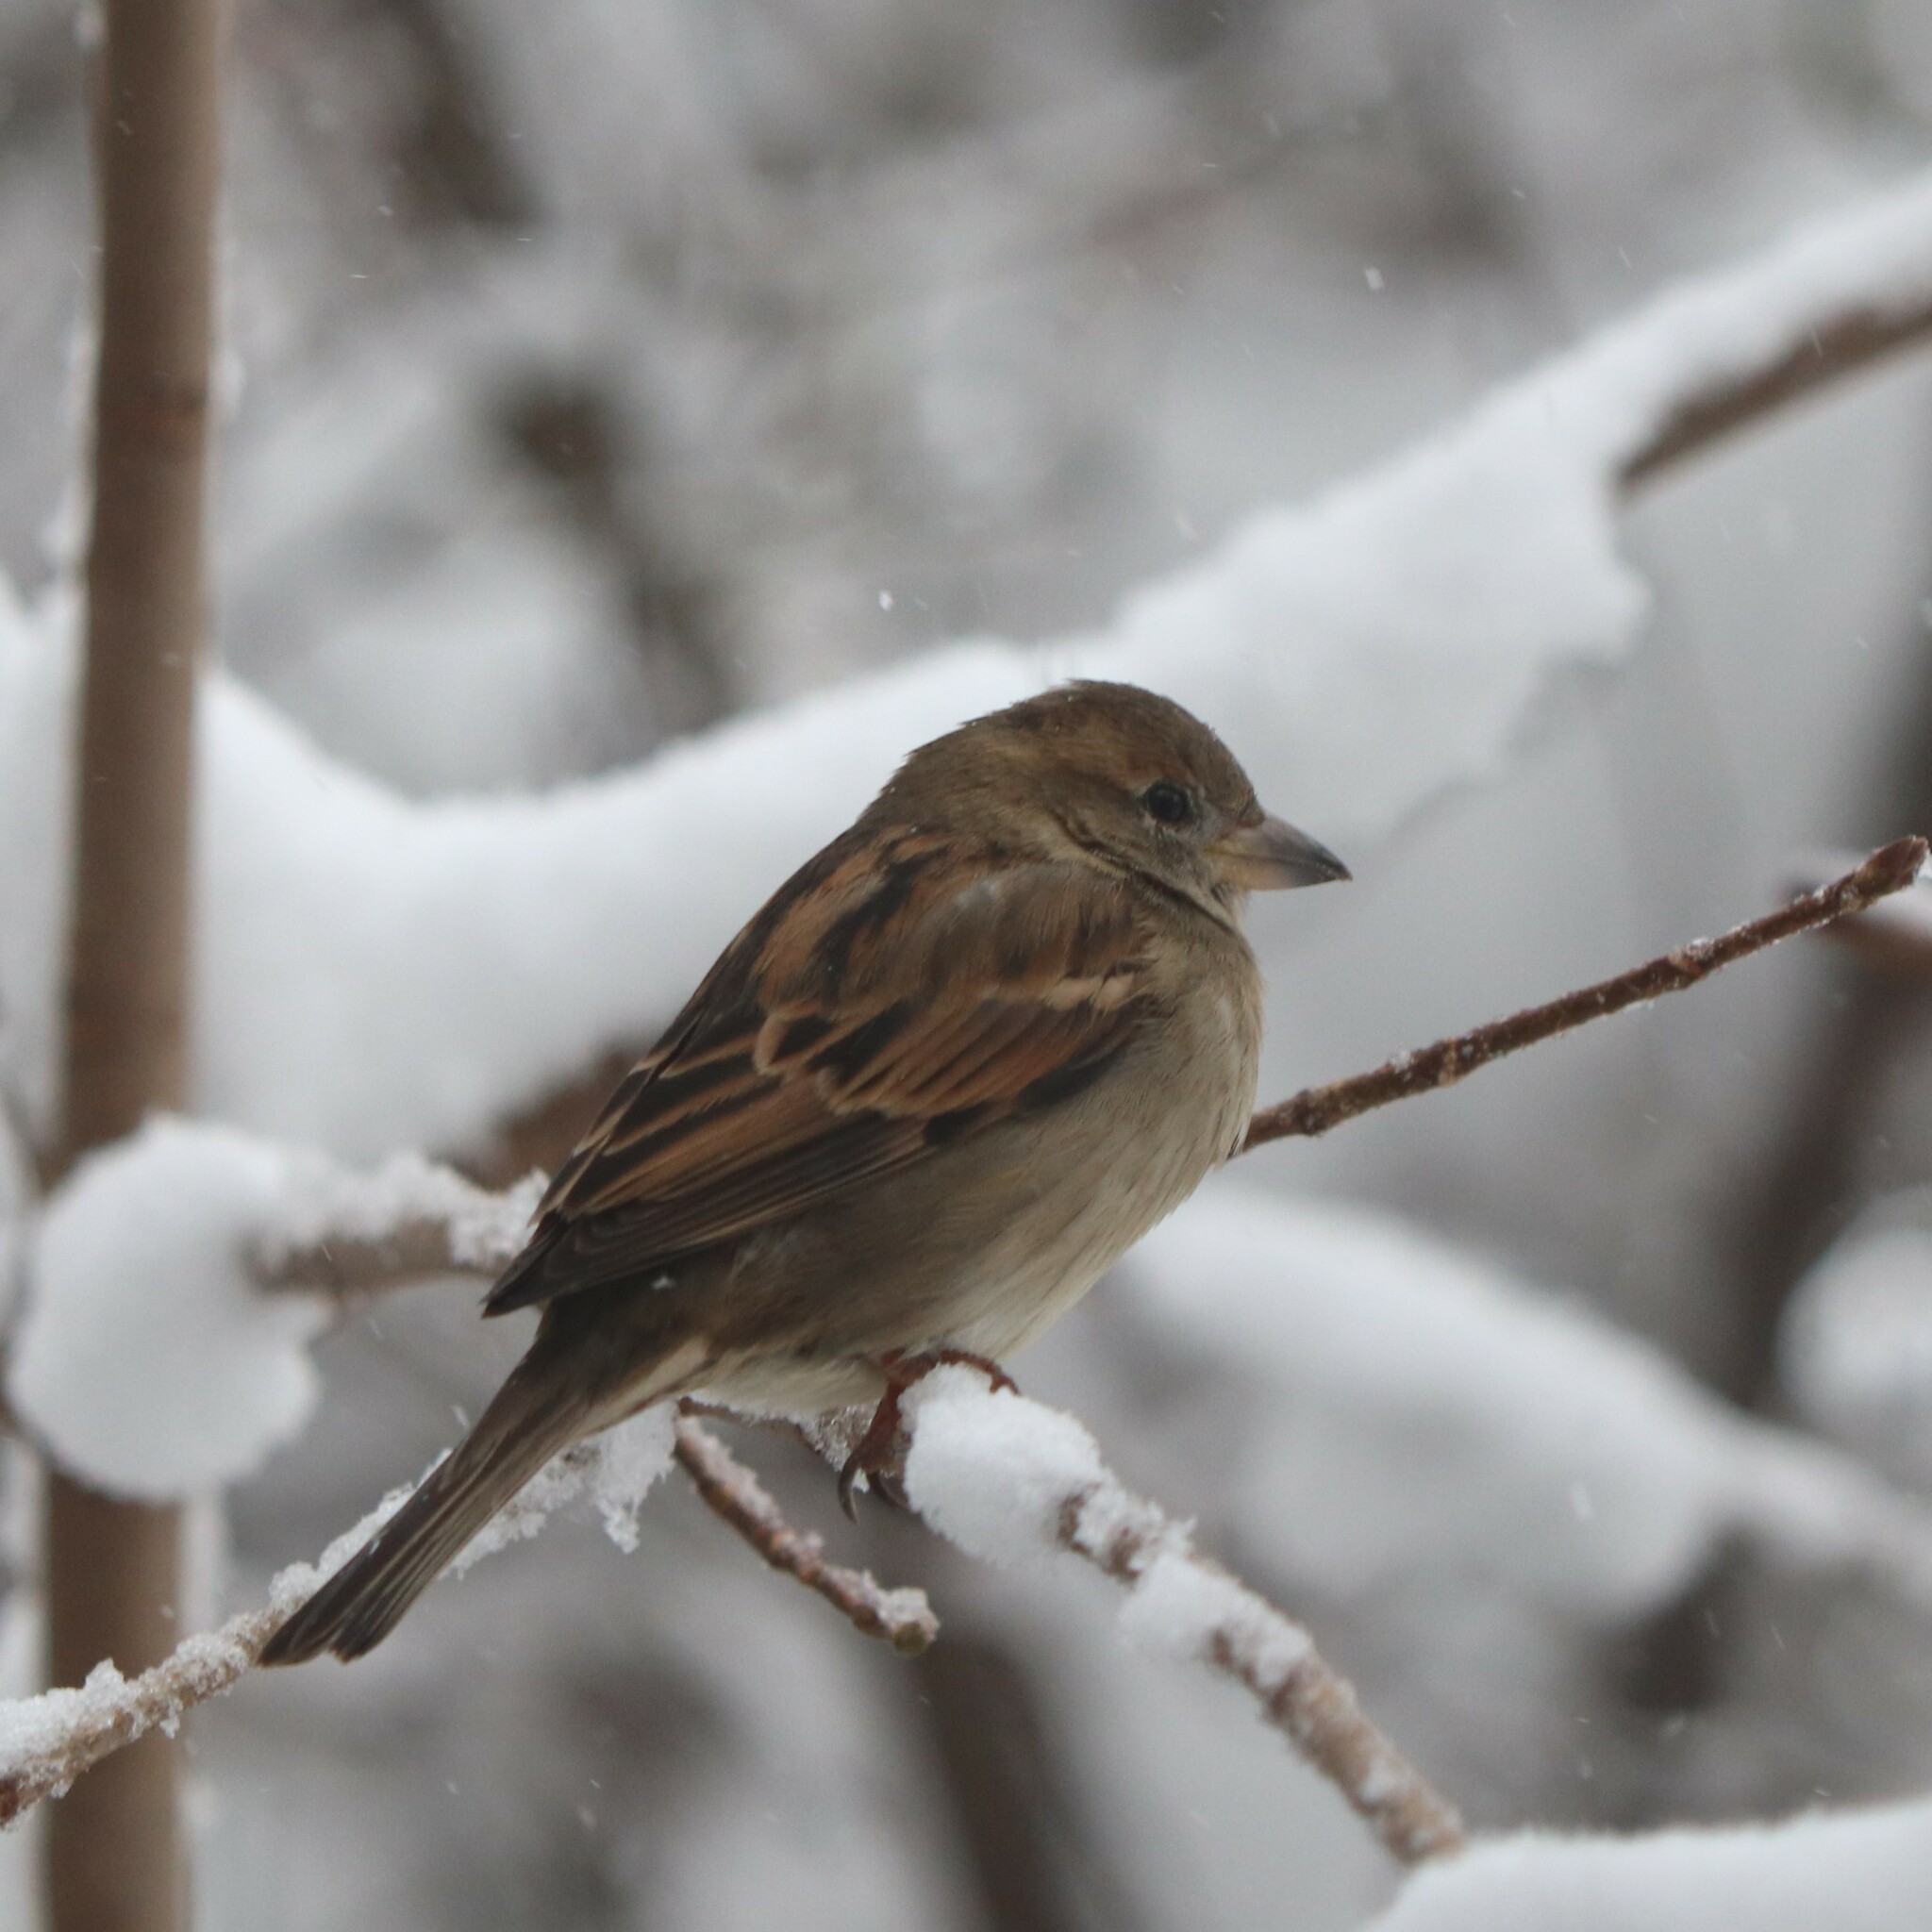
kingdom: Animalia
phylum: Chordata
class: Aves
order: Passeriformes
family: Passeridae
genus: Passer
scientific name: Passer domesticus
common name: House sparrow
